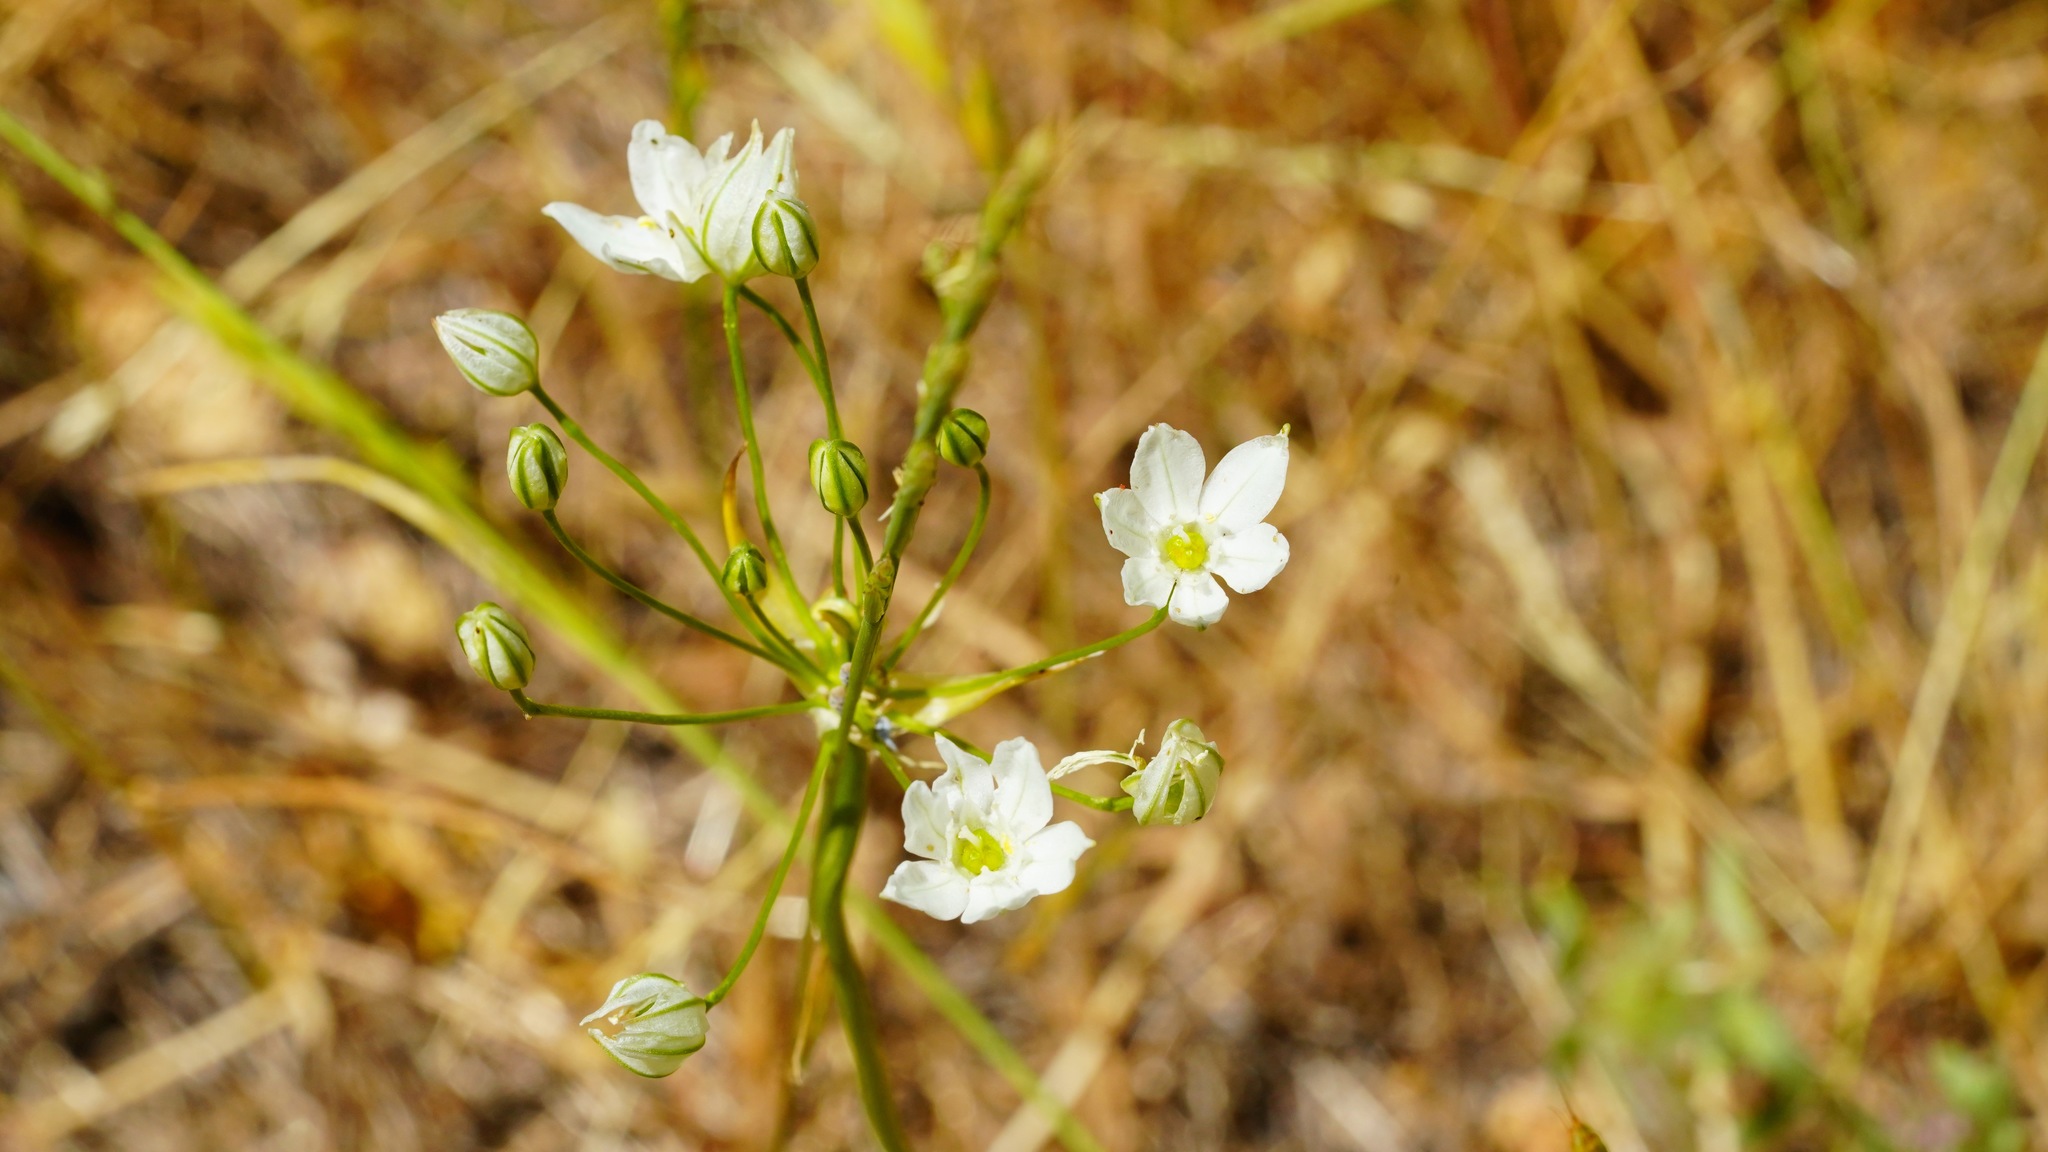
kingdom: Plantae
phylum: Tracheophyta
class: Liliopsida
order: Asparagales
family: Asparagaceae
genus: Triteleia
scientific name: Triteleia hyacinthina
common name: White brodiaea
